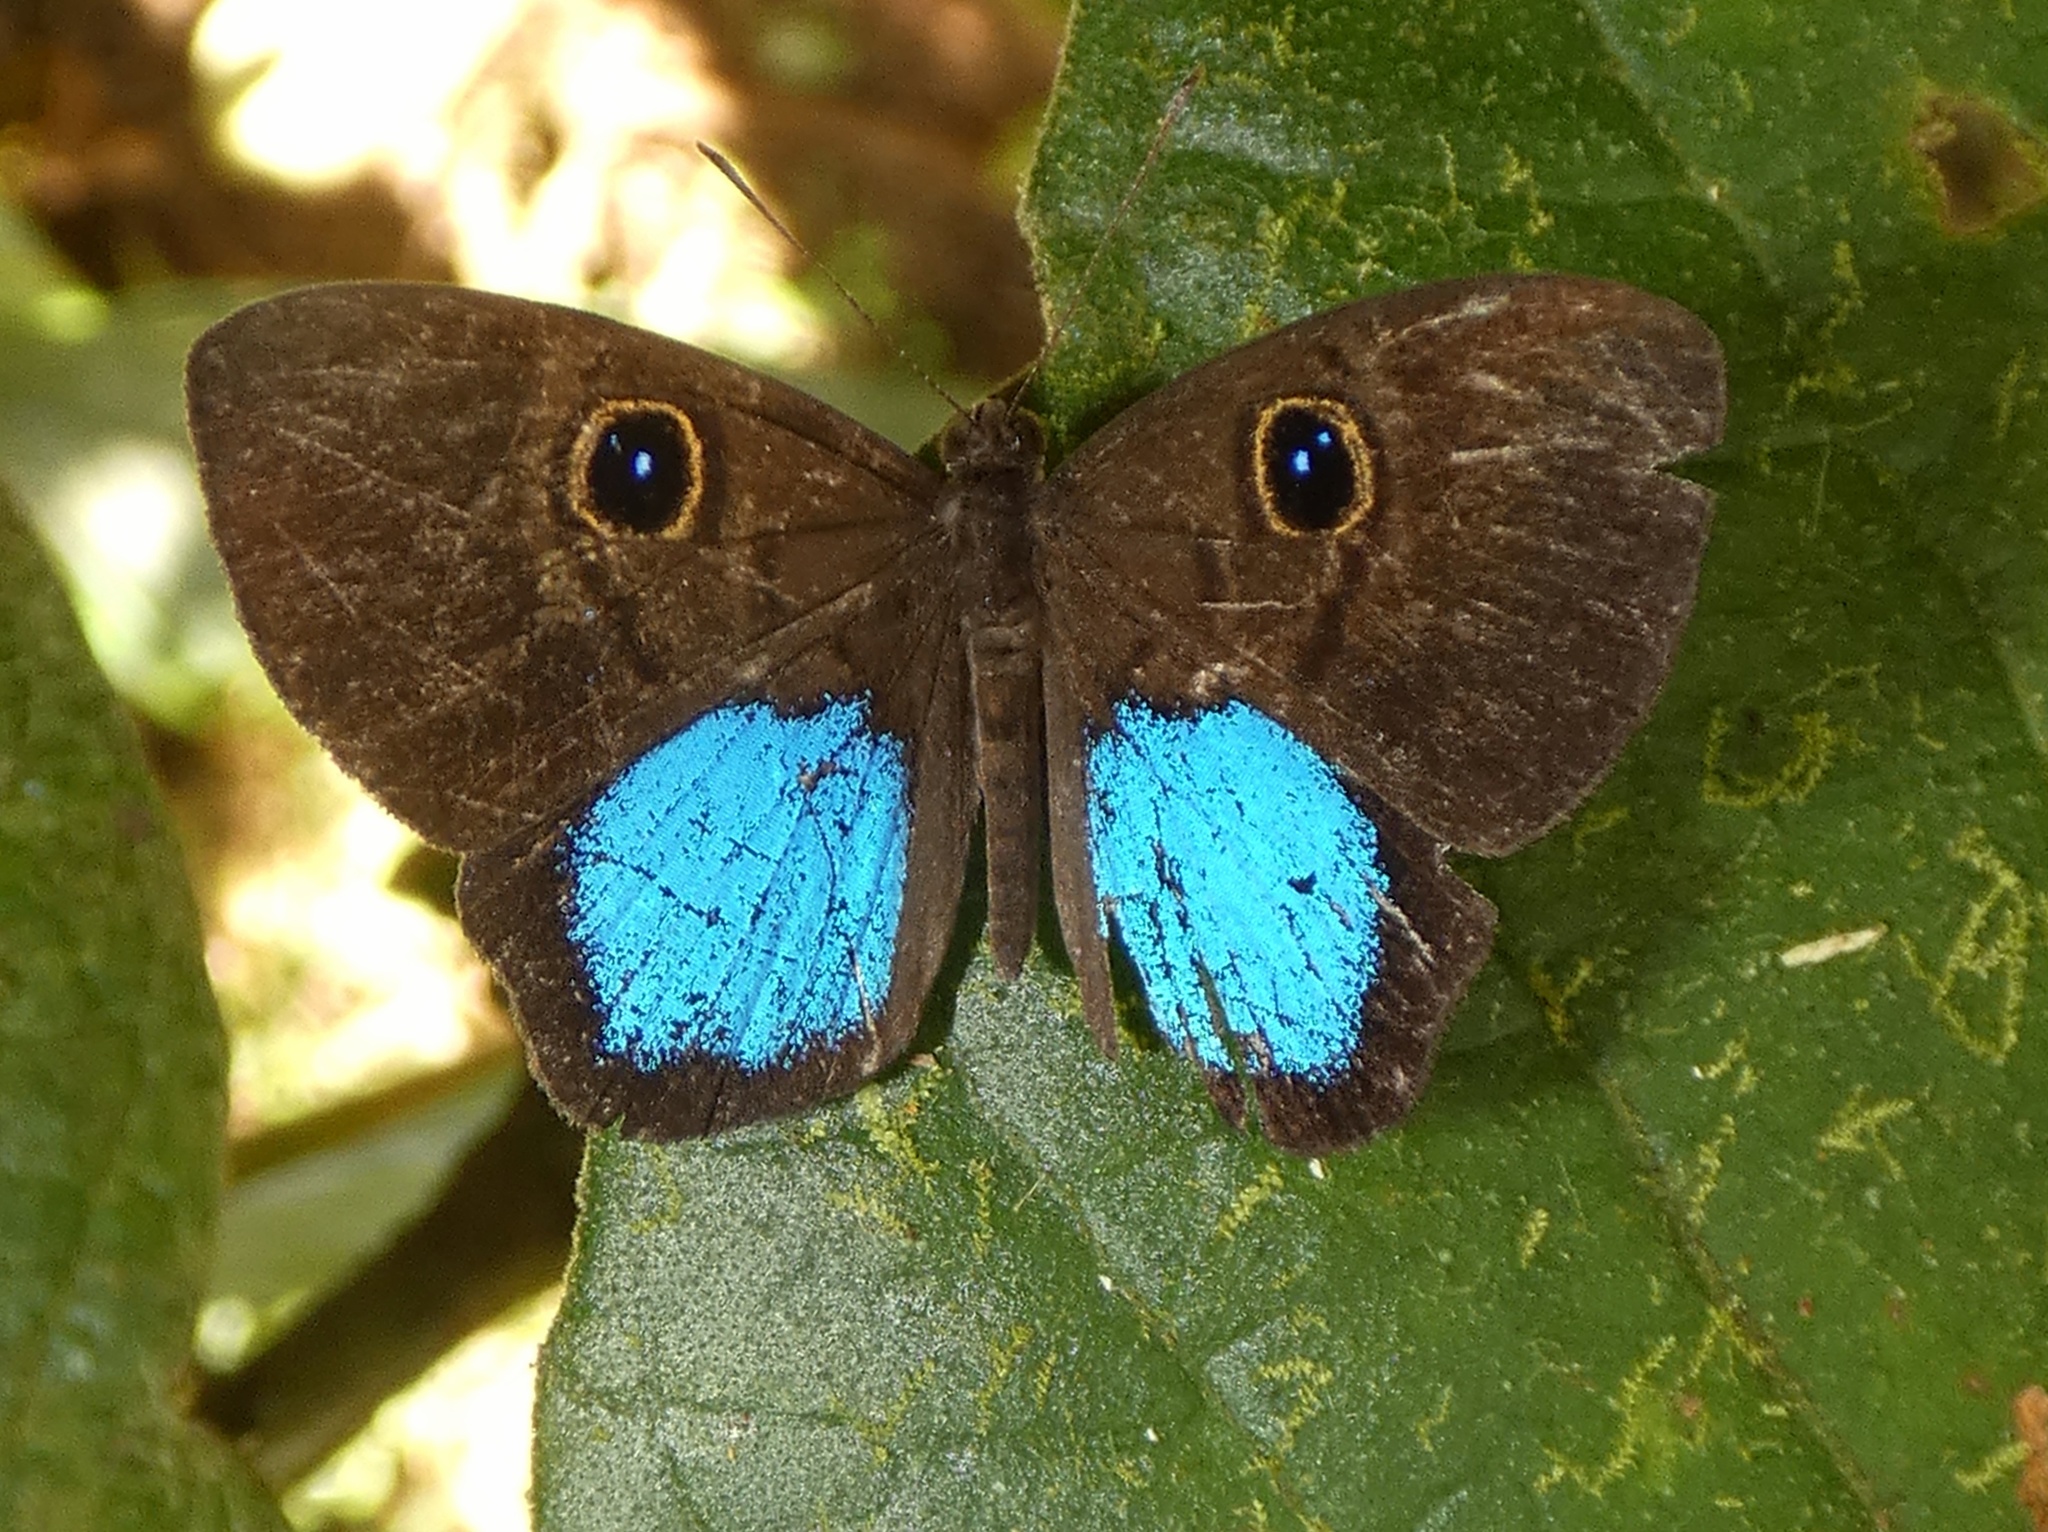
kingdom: Animalia
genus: Mesosemia
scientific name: Mesosemia carissima
